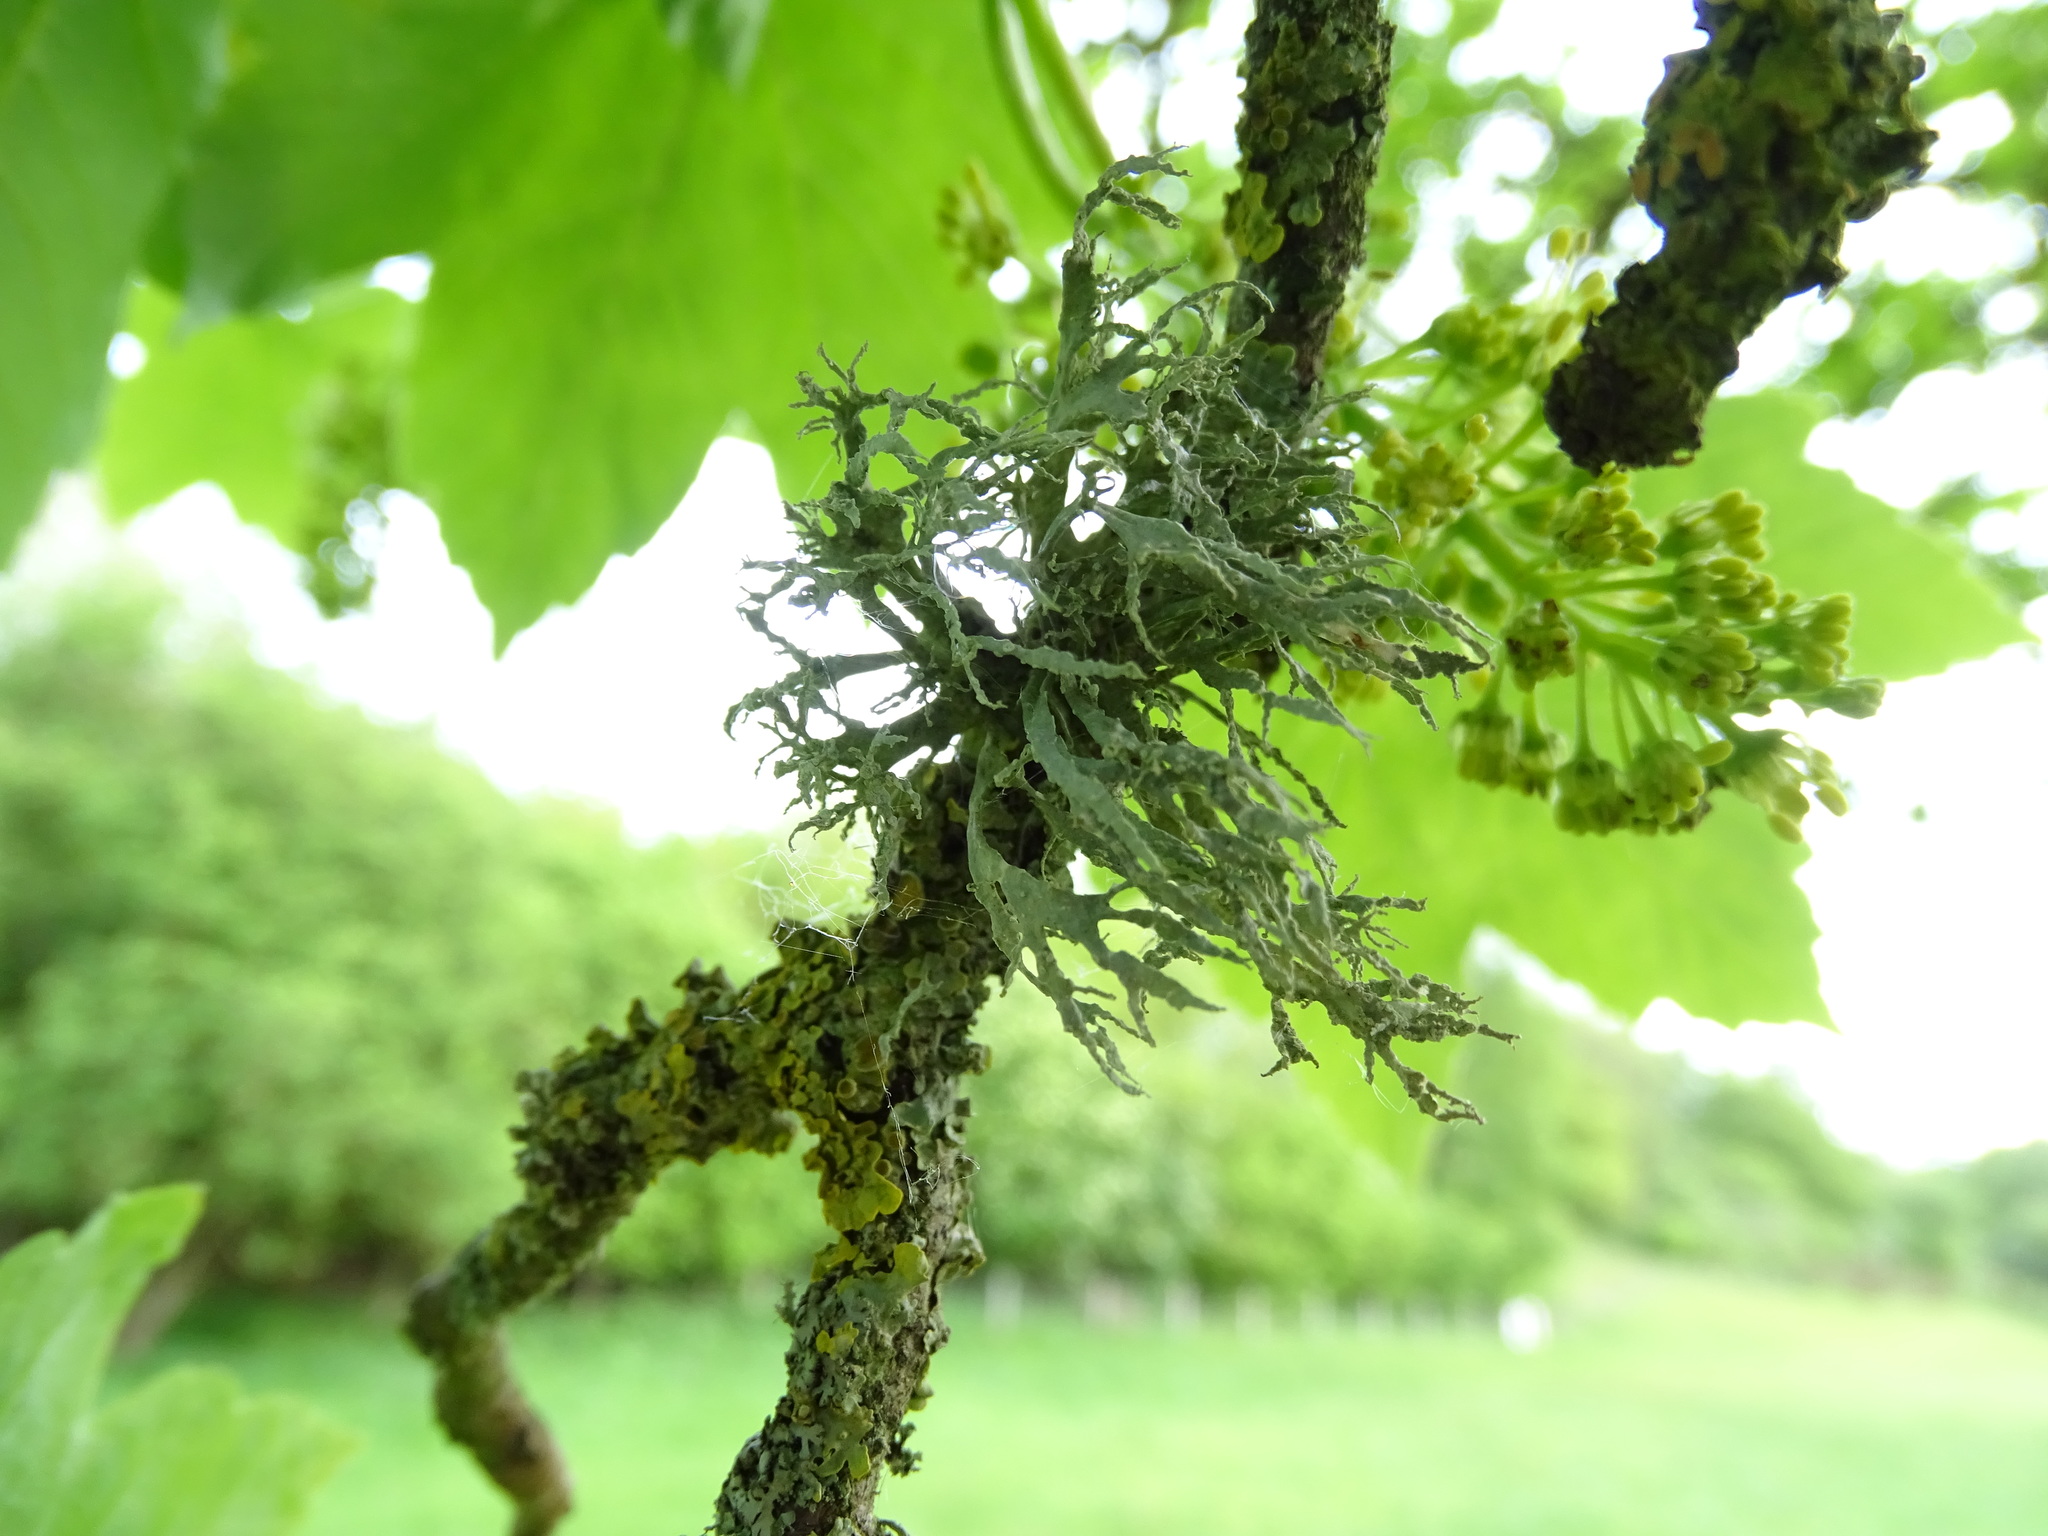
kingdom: Fungi
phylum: Ascomycota
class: Lecanoromycetes
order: Lecanorales
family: Ramalinaceae
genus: Ramalina
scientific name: Ramalina farinacea
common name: Farinose cartilage lichen
